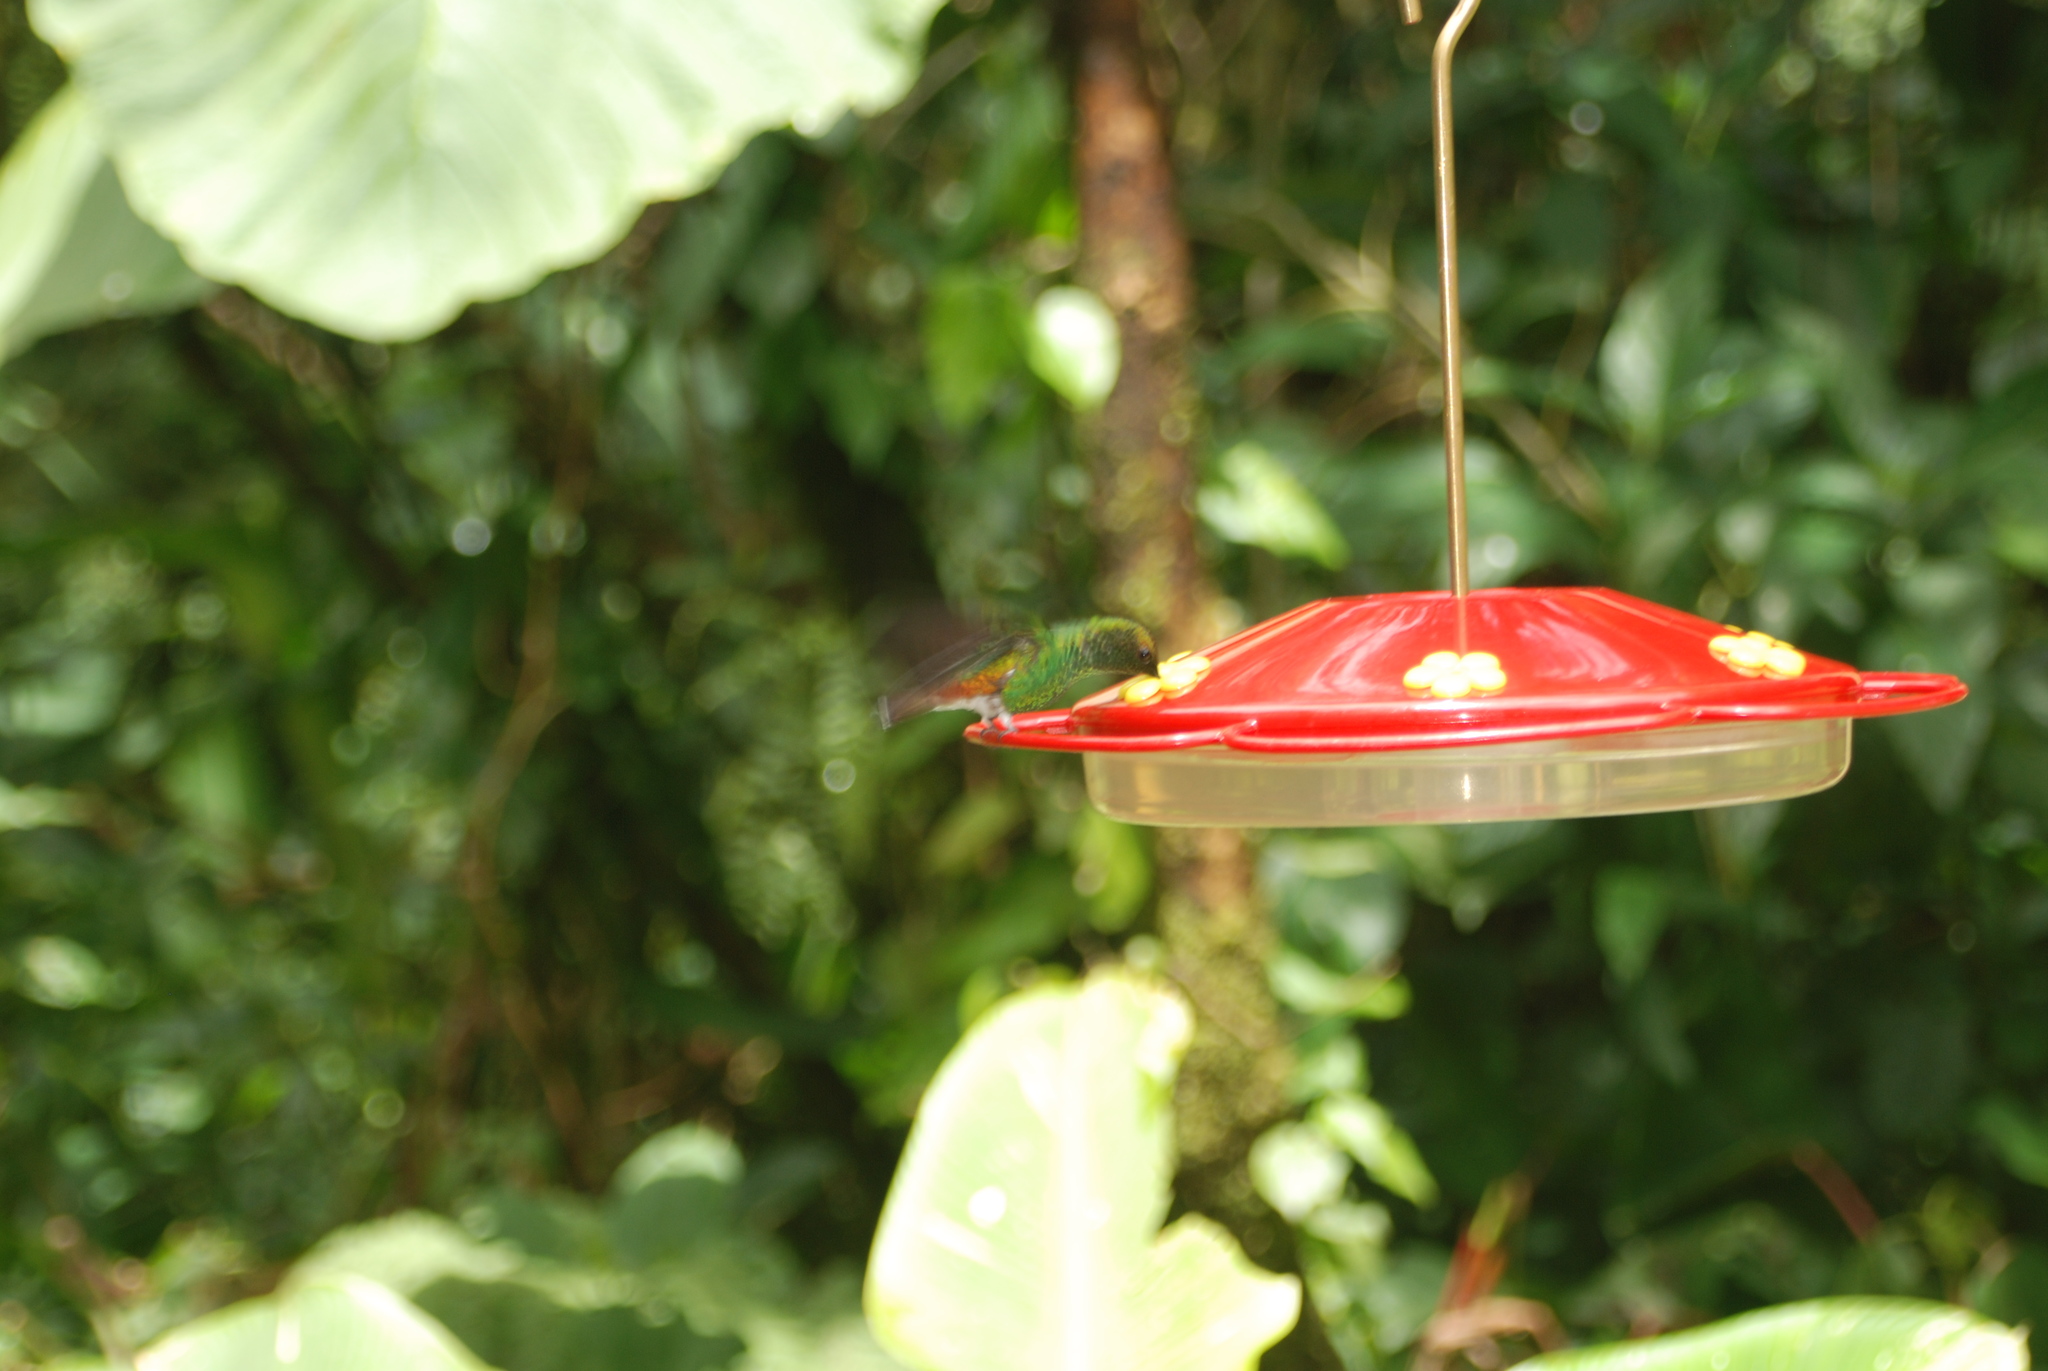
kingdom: Animalia
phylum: Chordata
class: Aves
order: Apodiformes
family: Trochilidae
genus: Microchera
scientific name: Microchera cupreiceps
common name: Coppery-headed emerald
